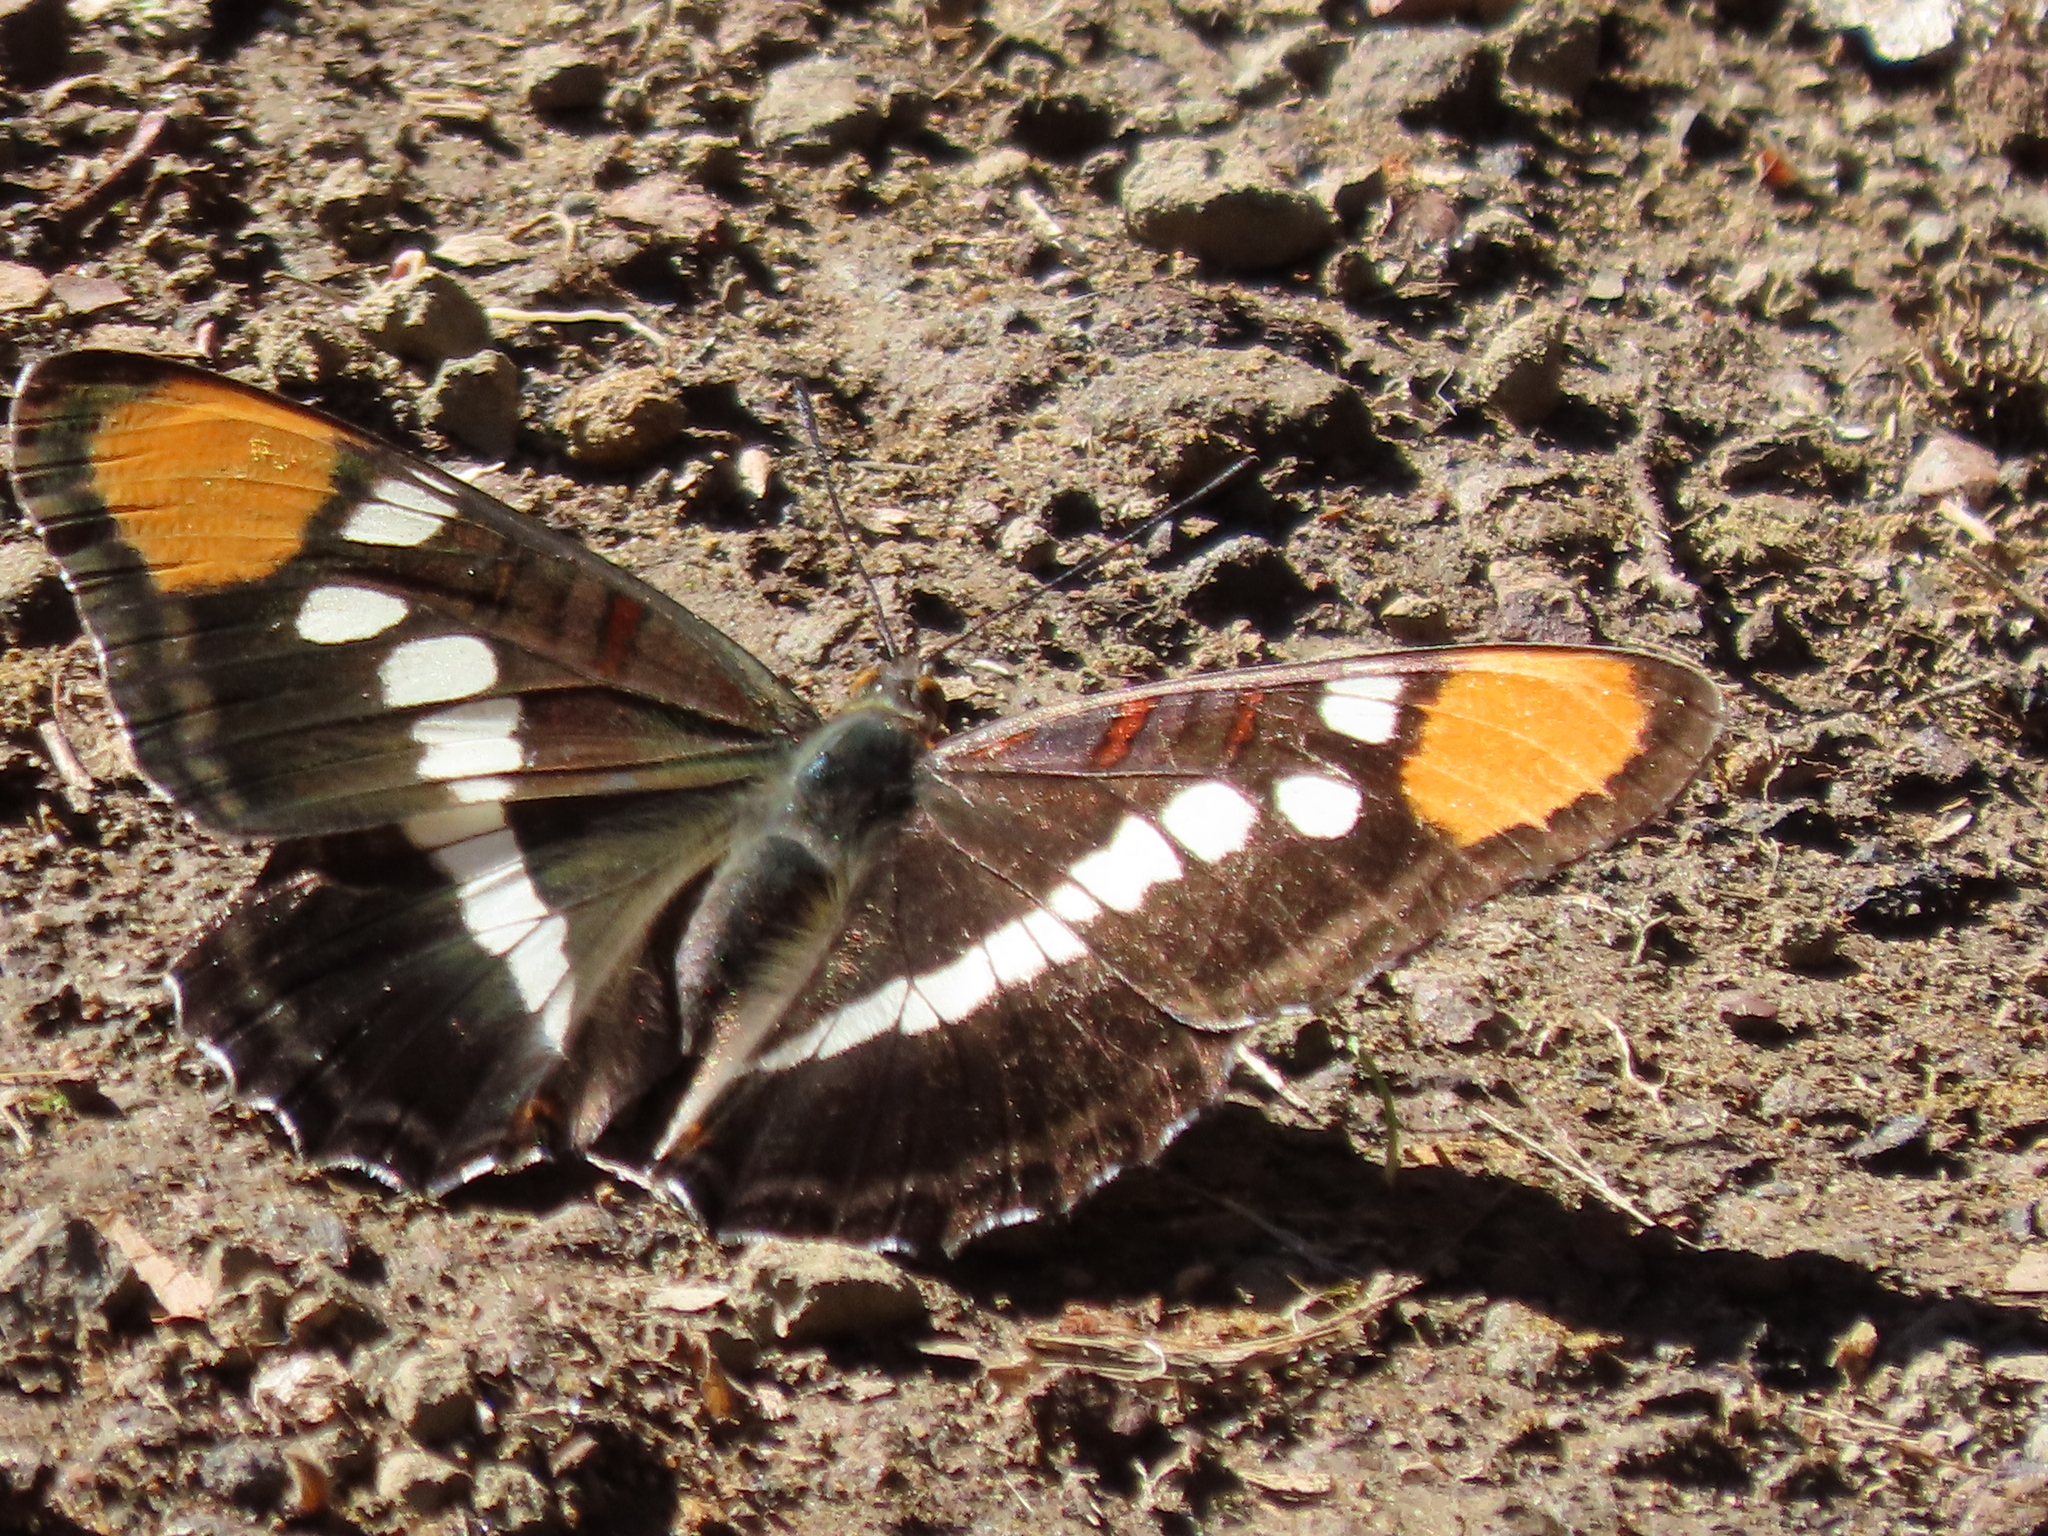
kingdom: Animalia
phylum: Arthropoda
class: Insecta
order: Lepidoptera
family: Nymphalidae
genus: Limenitis
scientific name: Limenitis bredowii
